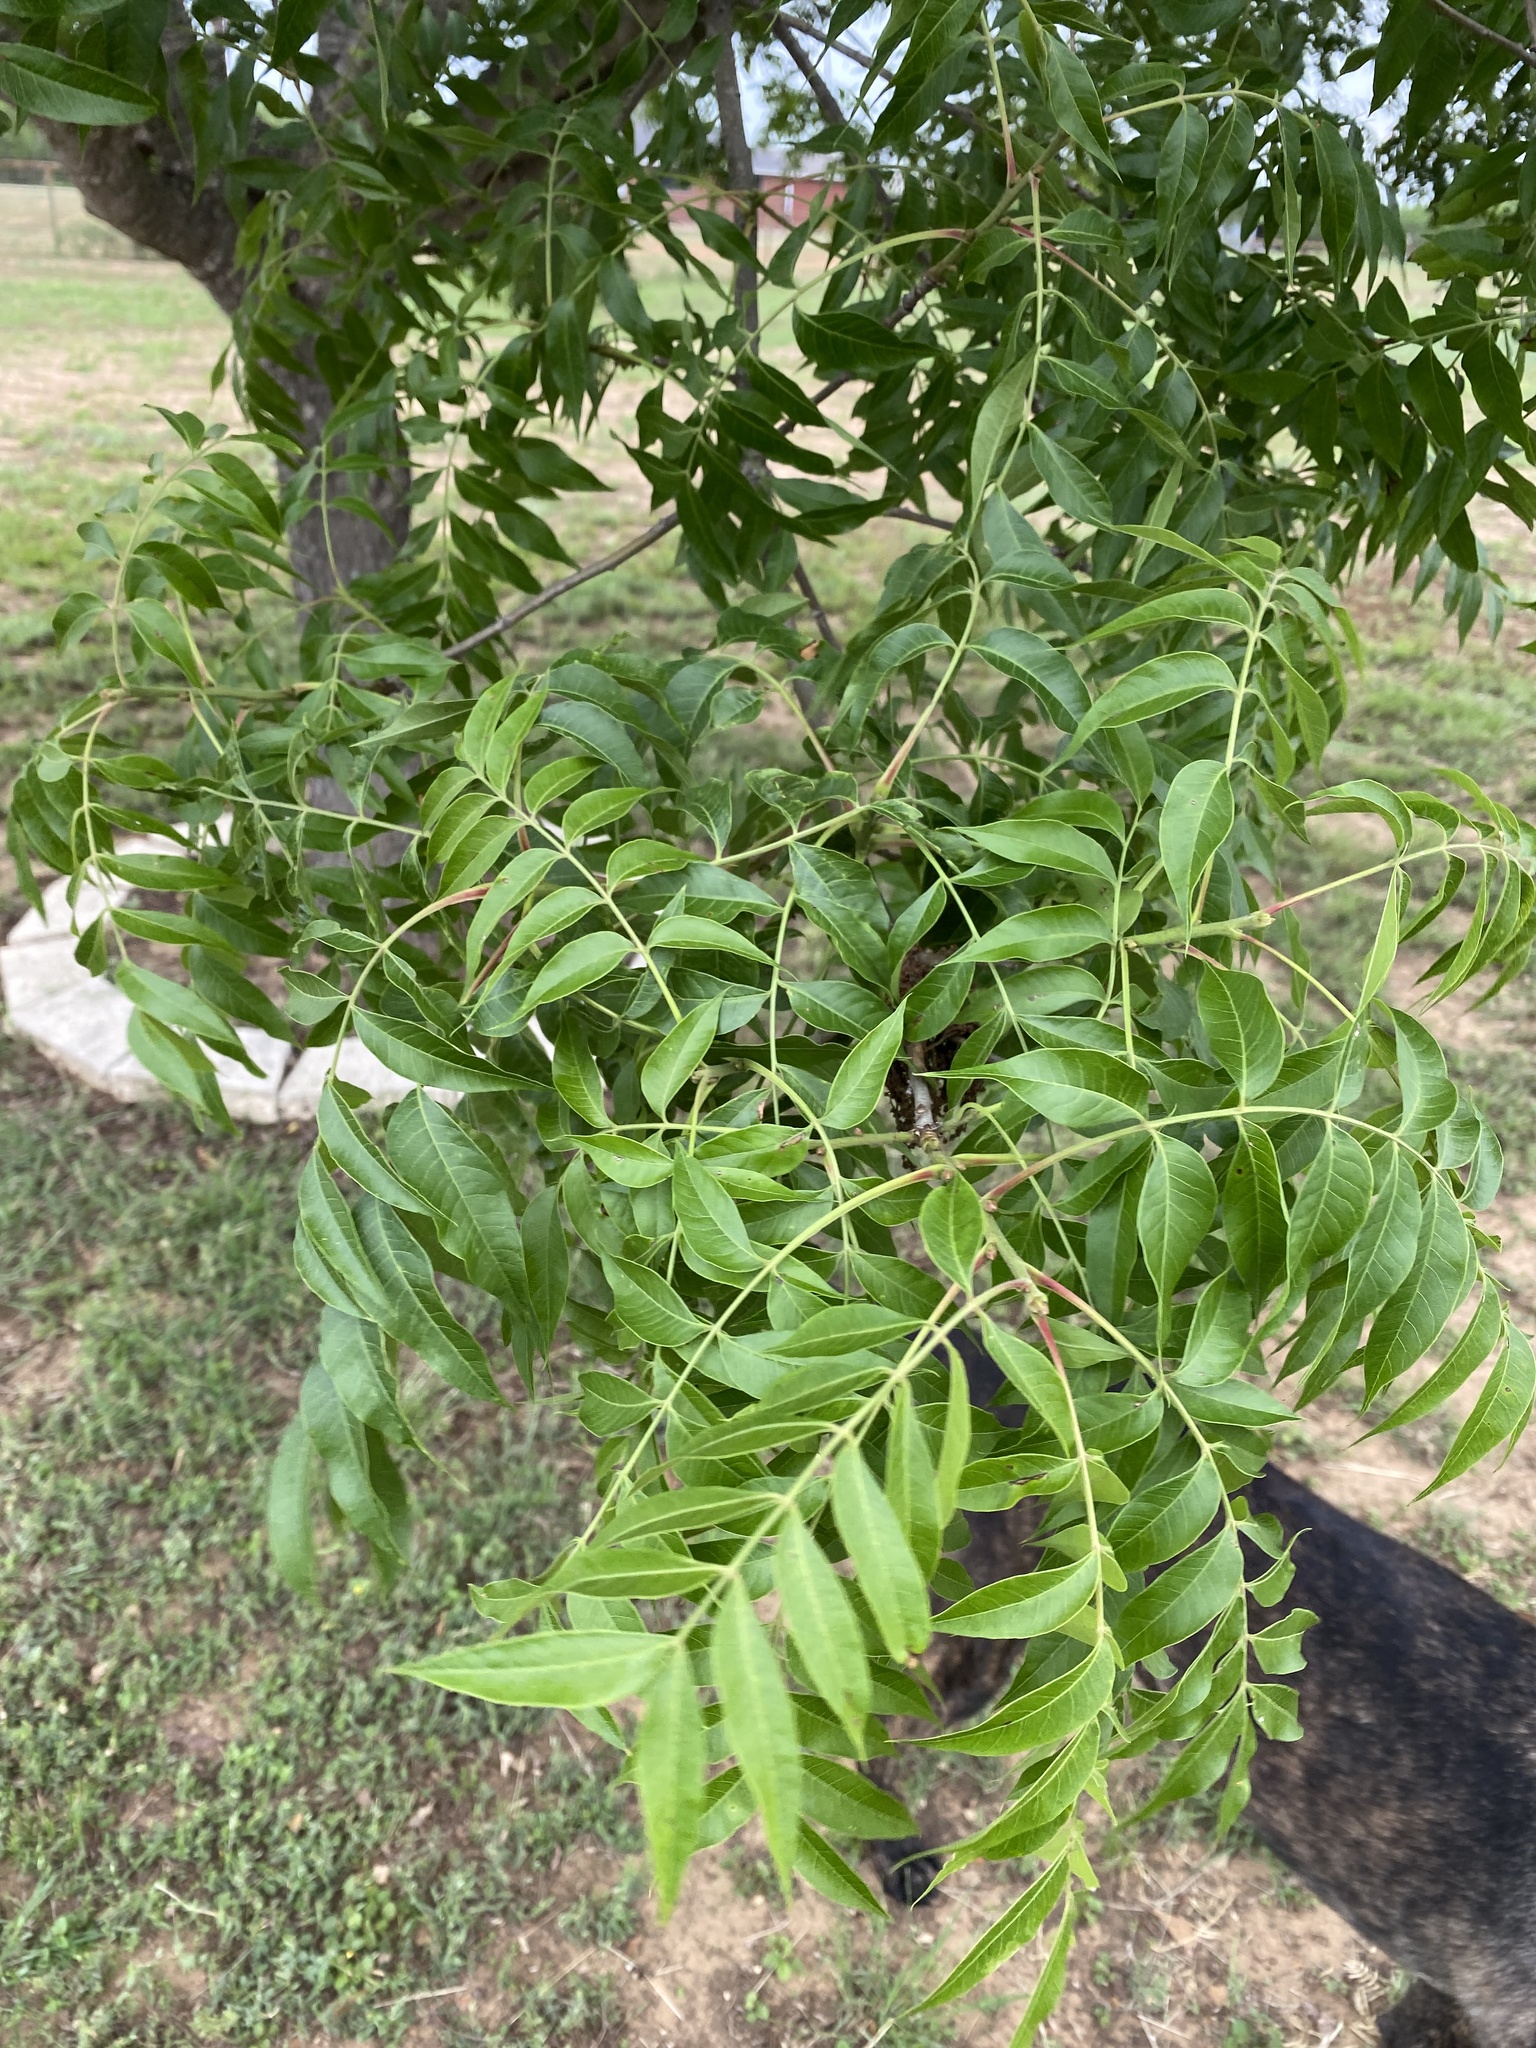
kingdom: Plantae
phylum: Tracheophyta
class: Magnoliopsida
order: Sapindales
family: Anacardiaceae
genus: Pistacia
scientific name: Pistacia chinensis
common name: Chinese pistache
